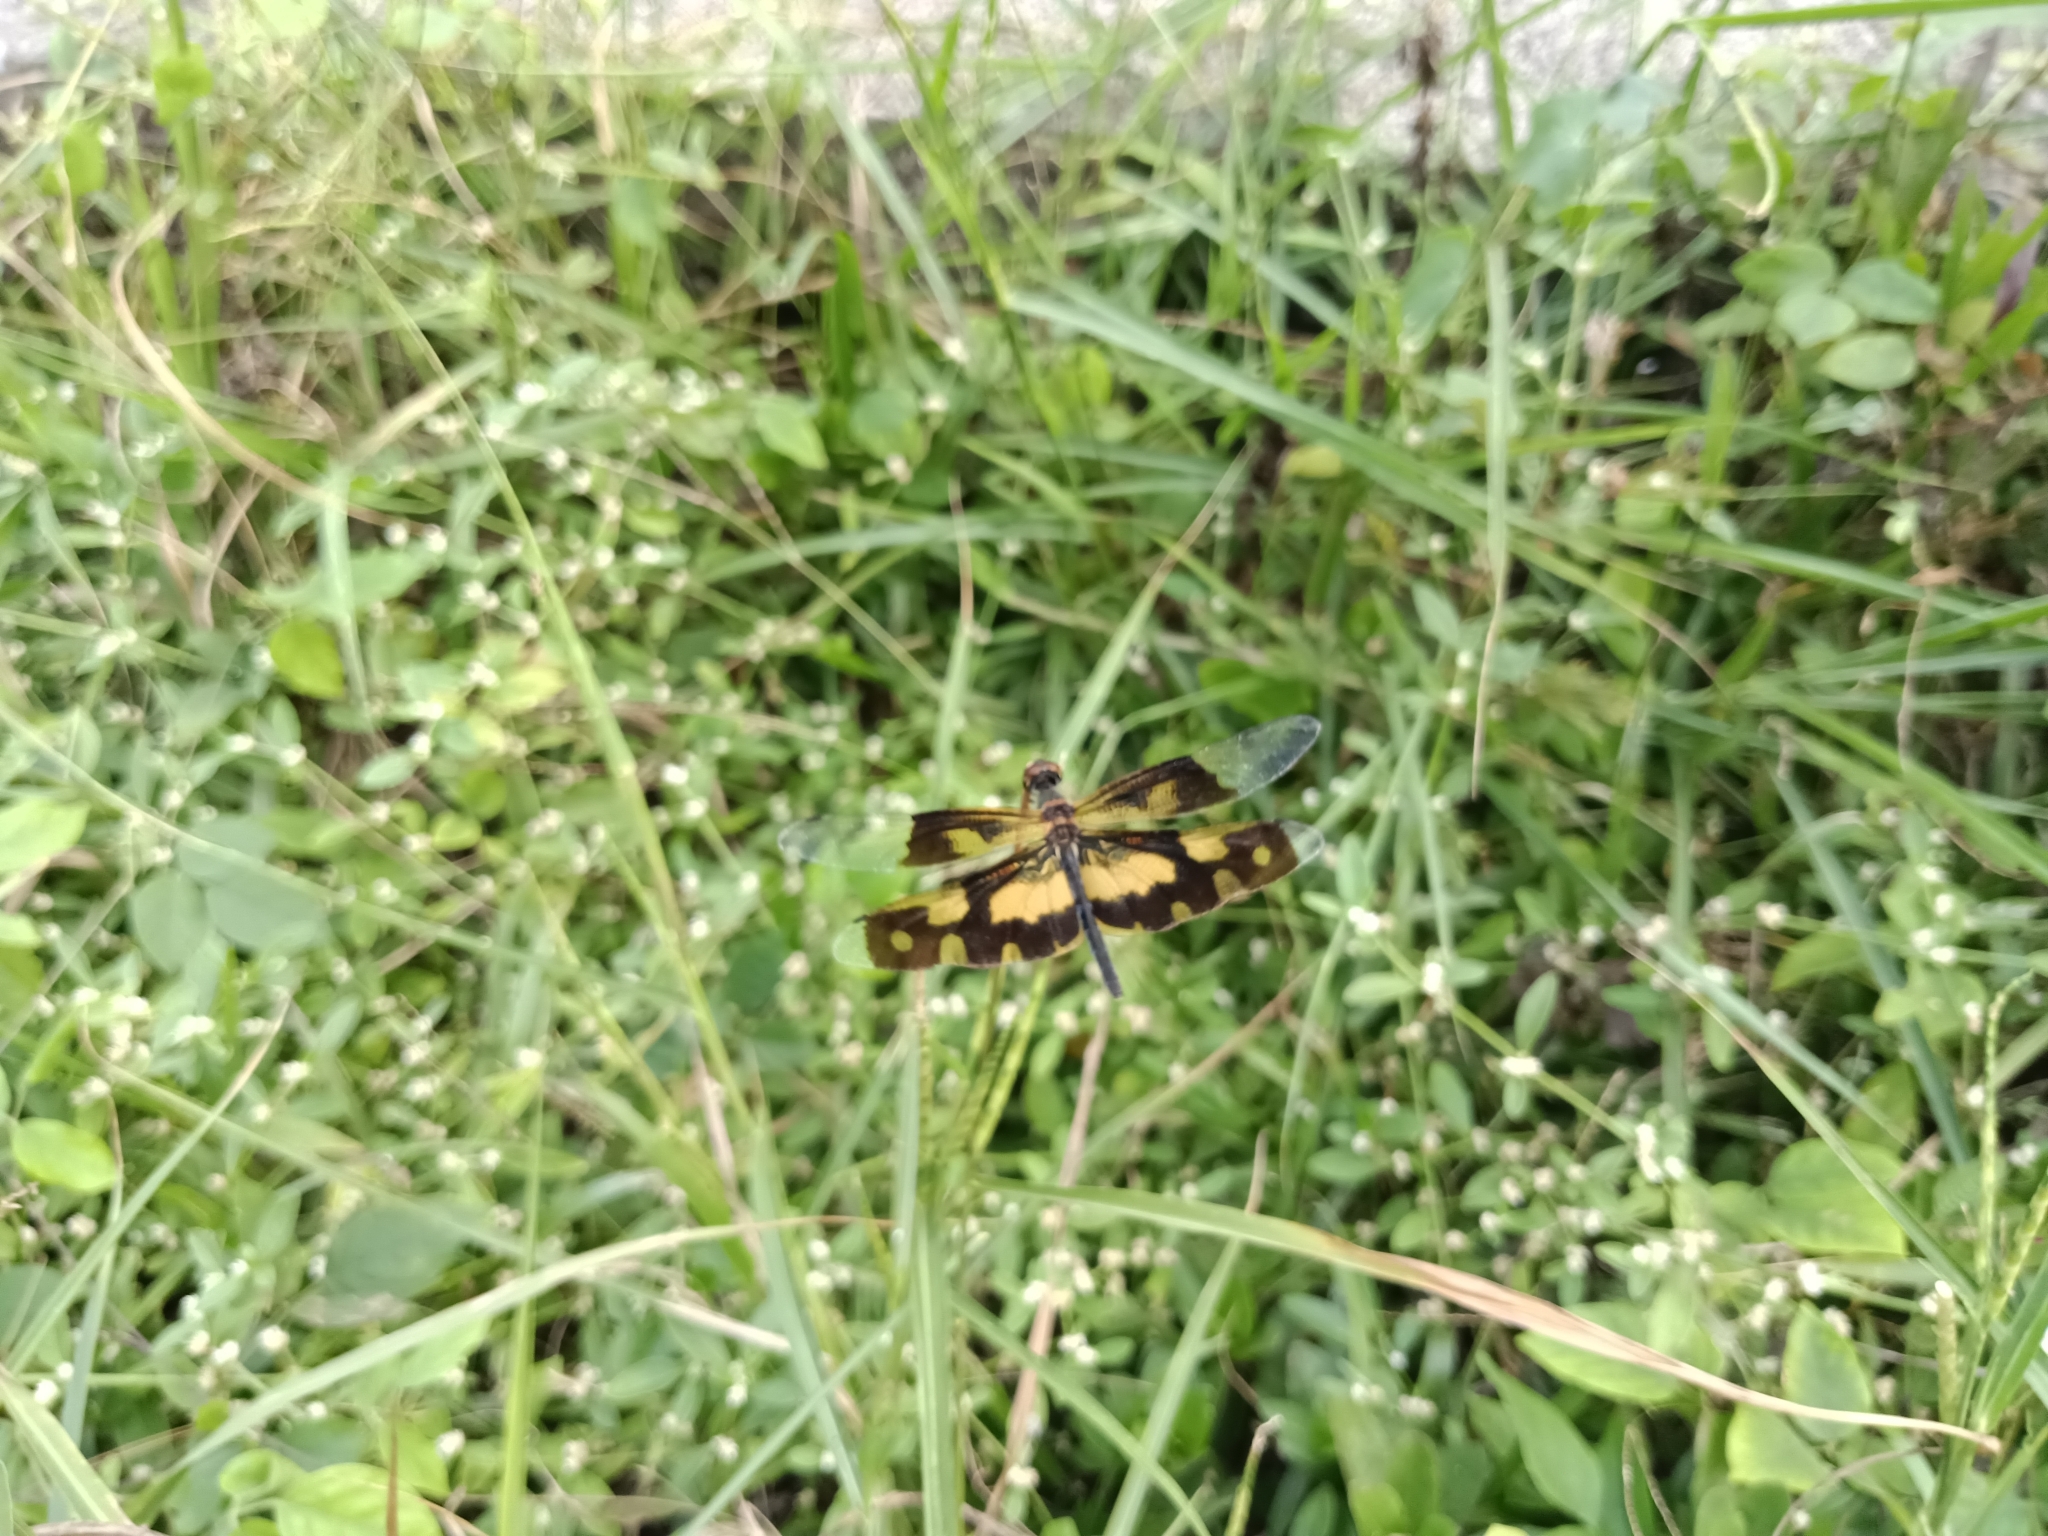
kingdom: Animalia
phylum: Arthropoda
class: Insecta
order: Odonata
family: Libellulidae
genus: Rhyothemis
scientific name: Rhyothemis variegata
